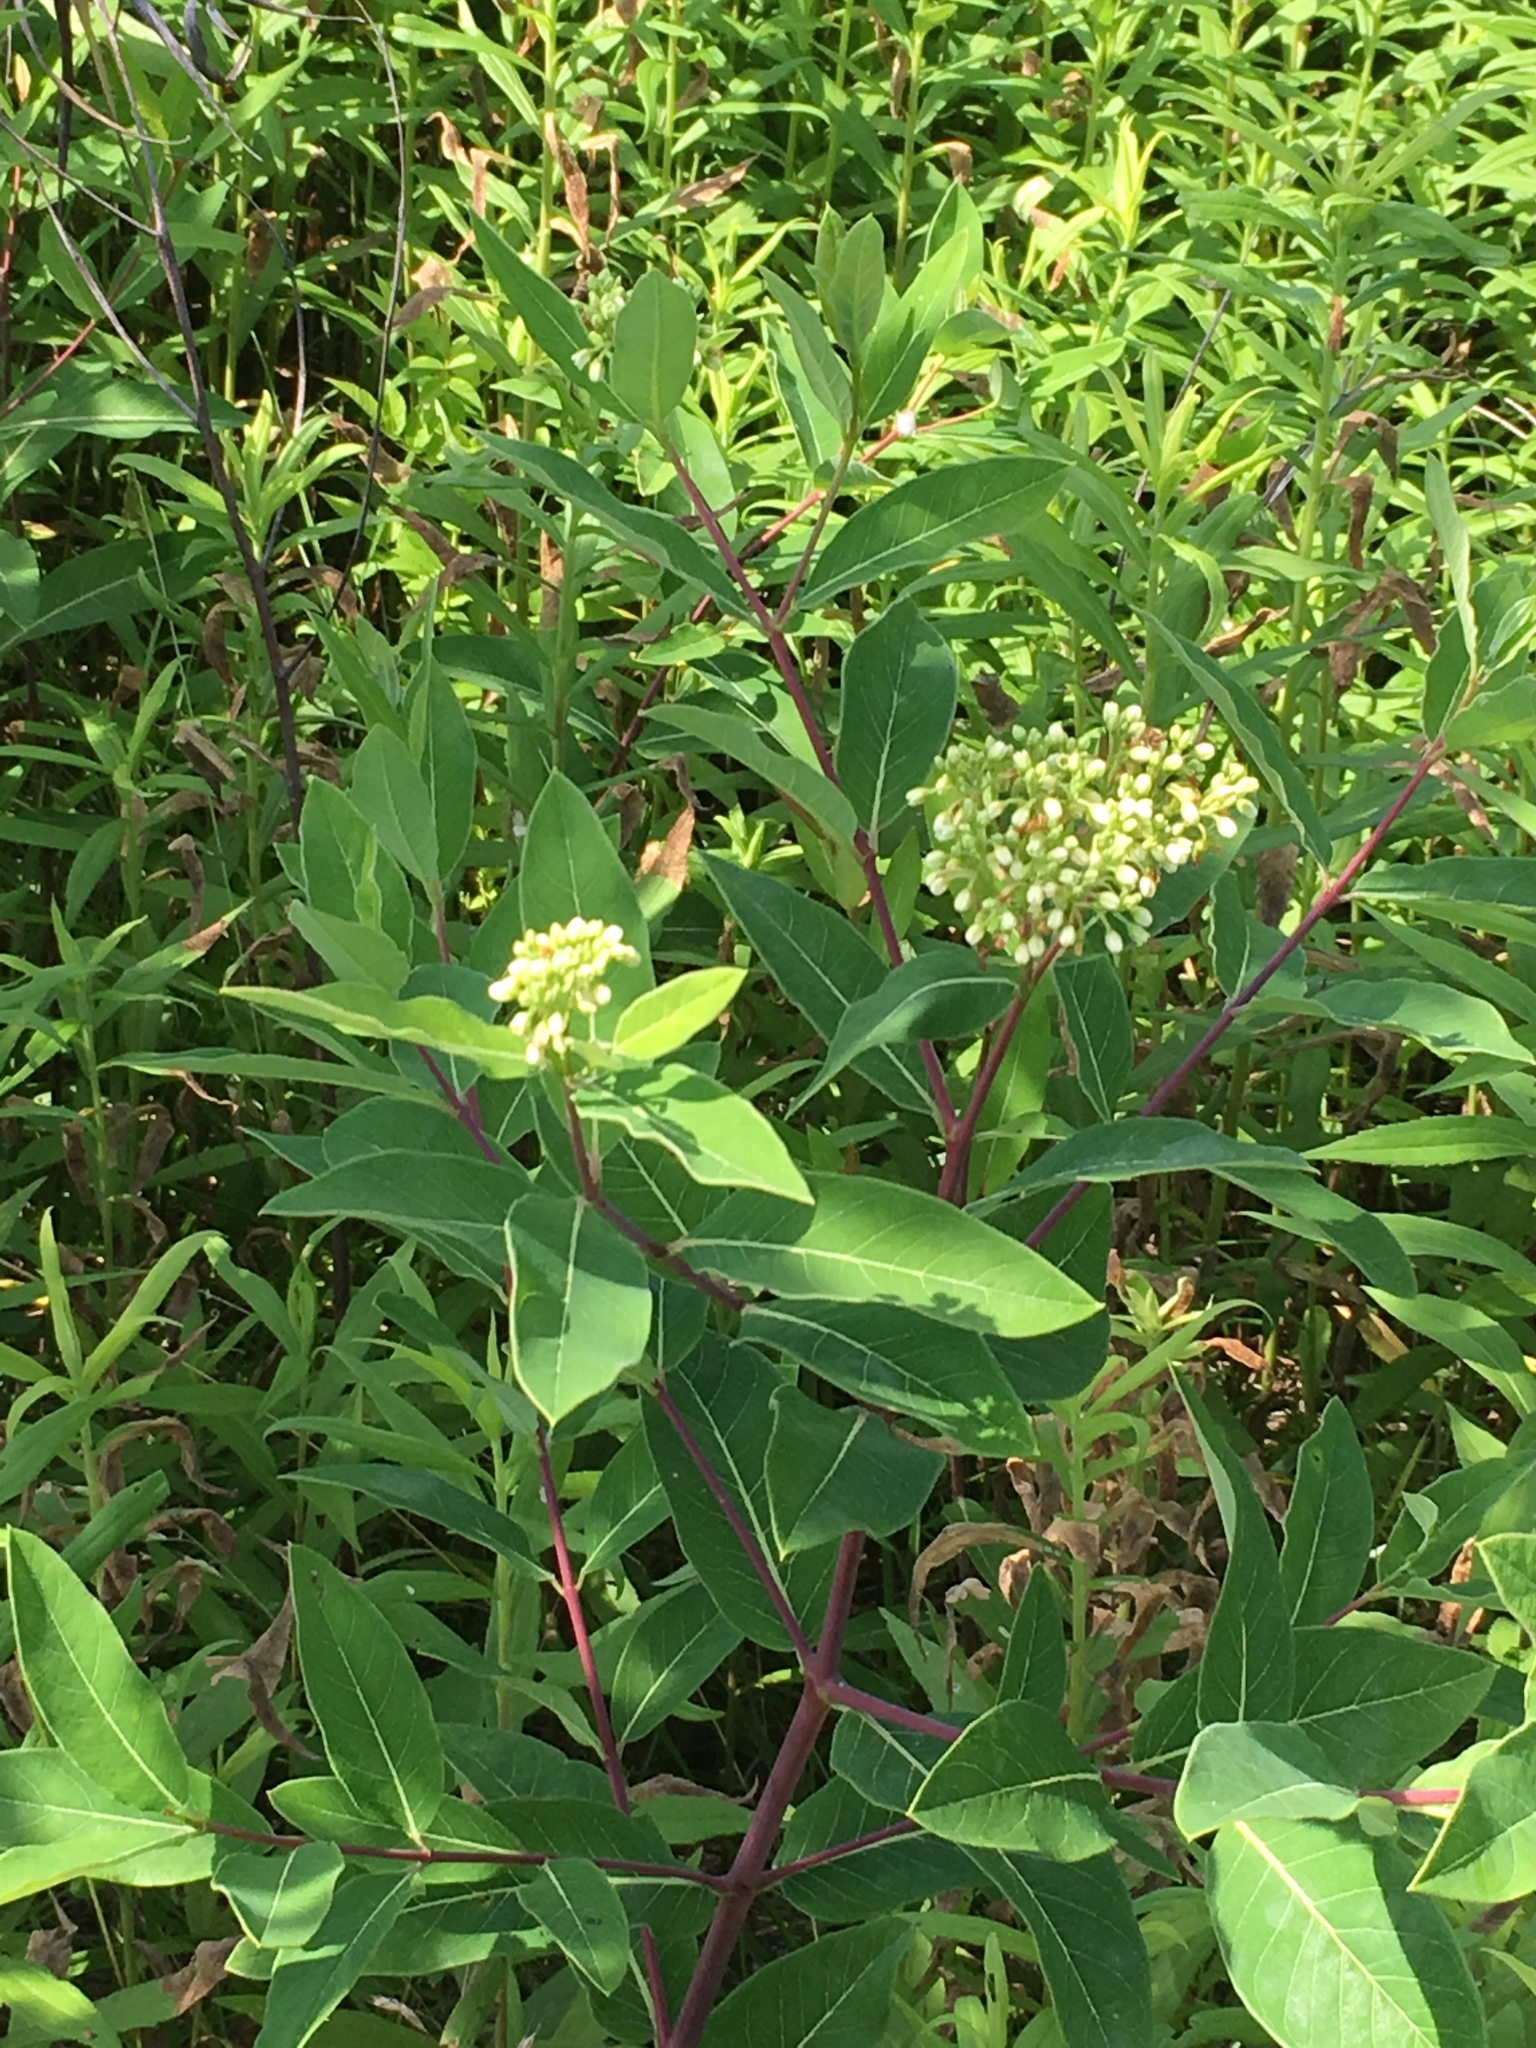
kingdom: Plantae
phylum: Tracheophyta
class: Magnoliopsida
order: Gentianales
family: Apocynaceae
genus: Apocynum
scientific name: Apocynum cannabinum
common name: Hemp dogbane
